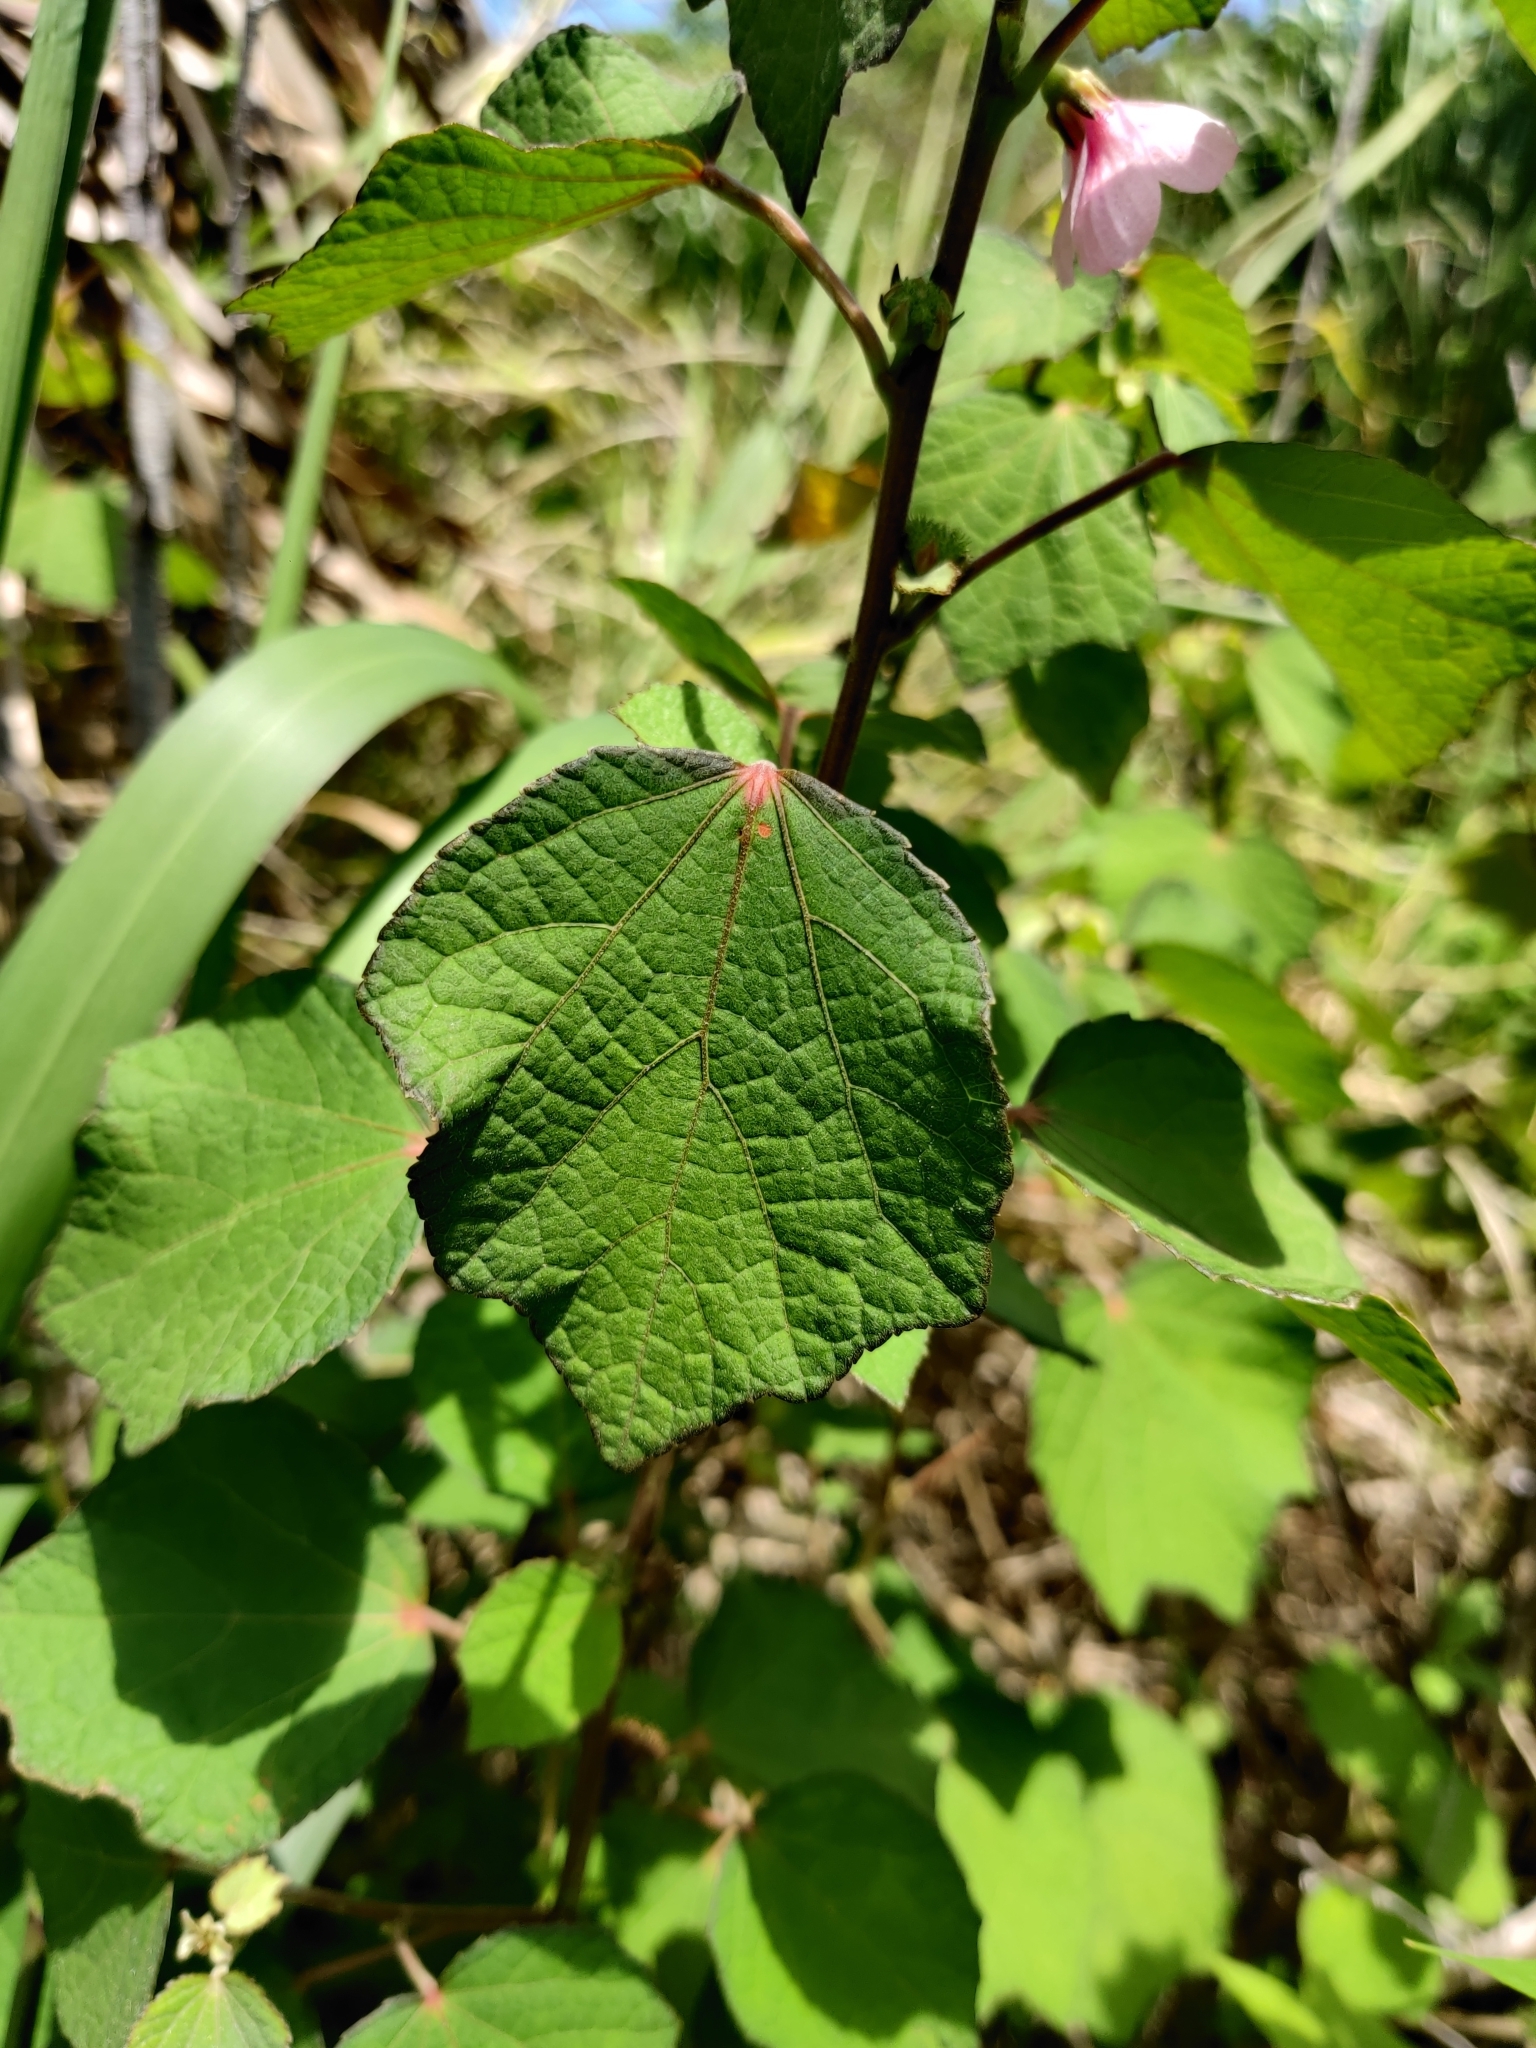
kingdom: Plantae
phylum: Tracheophyta
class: Magnoliopsida
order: Malvales
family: Malvaceae
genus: Urena
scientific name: Urena lobata
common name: Caesarweed
